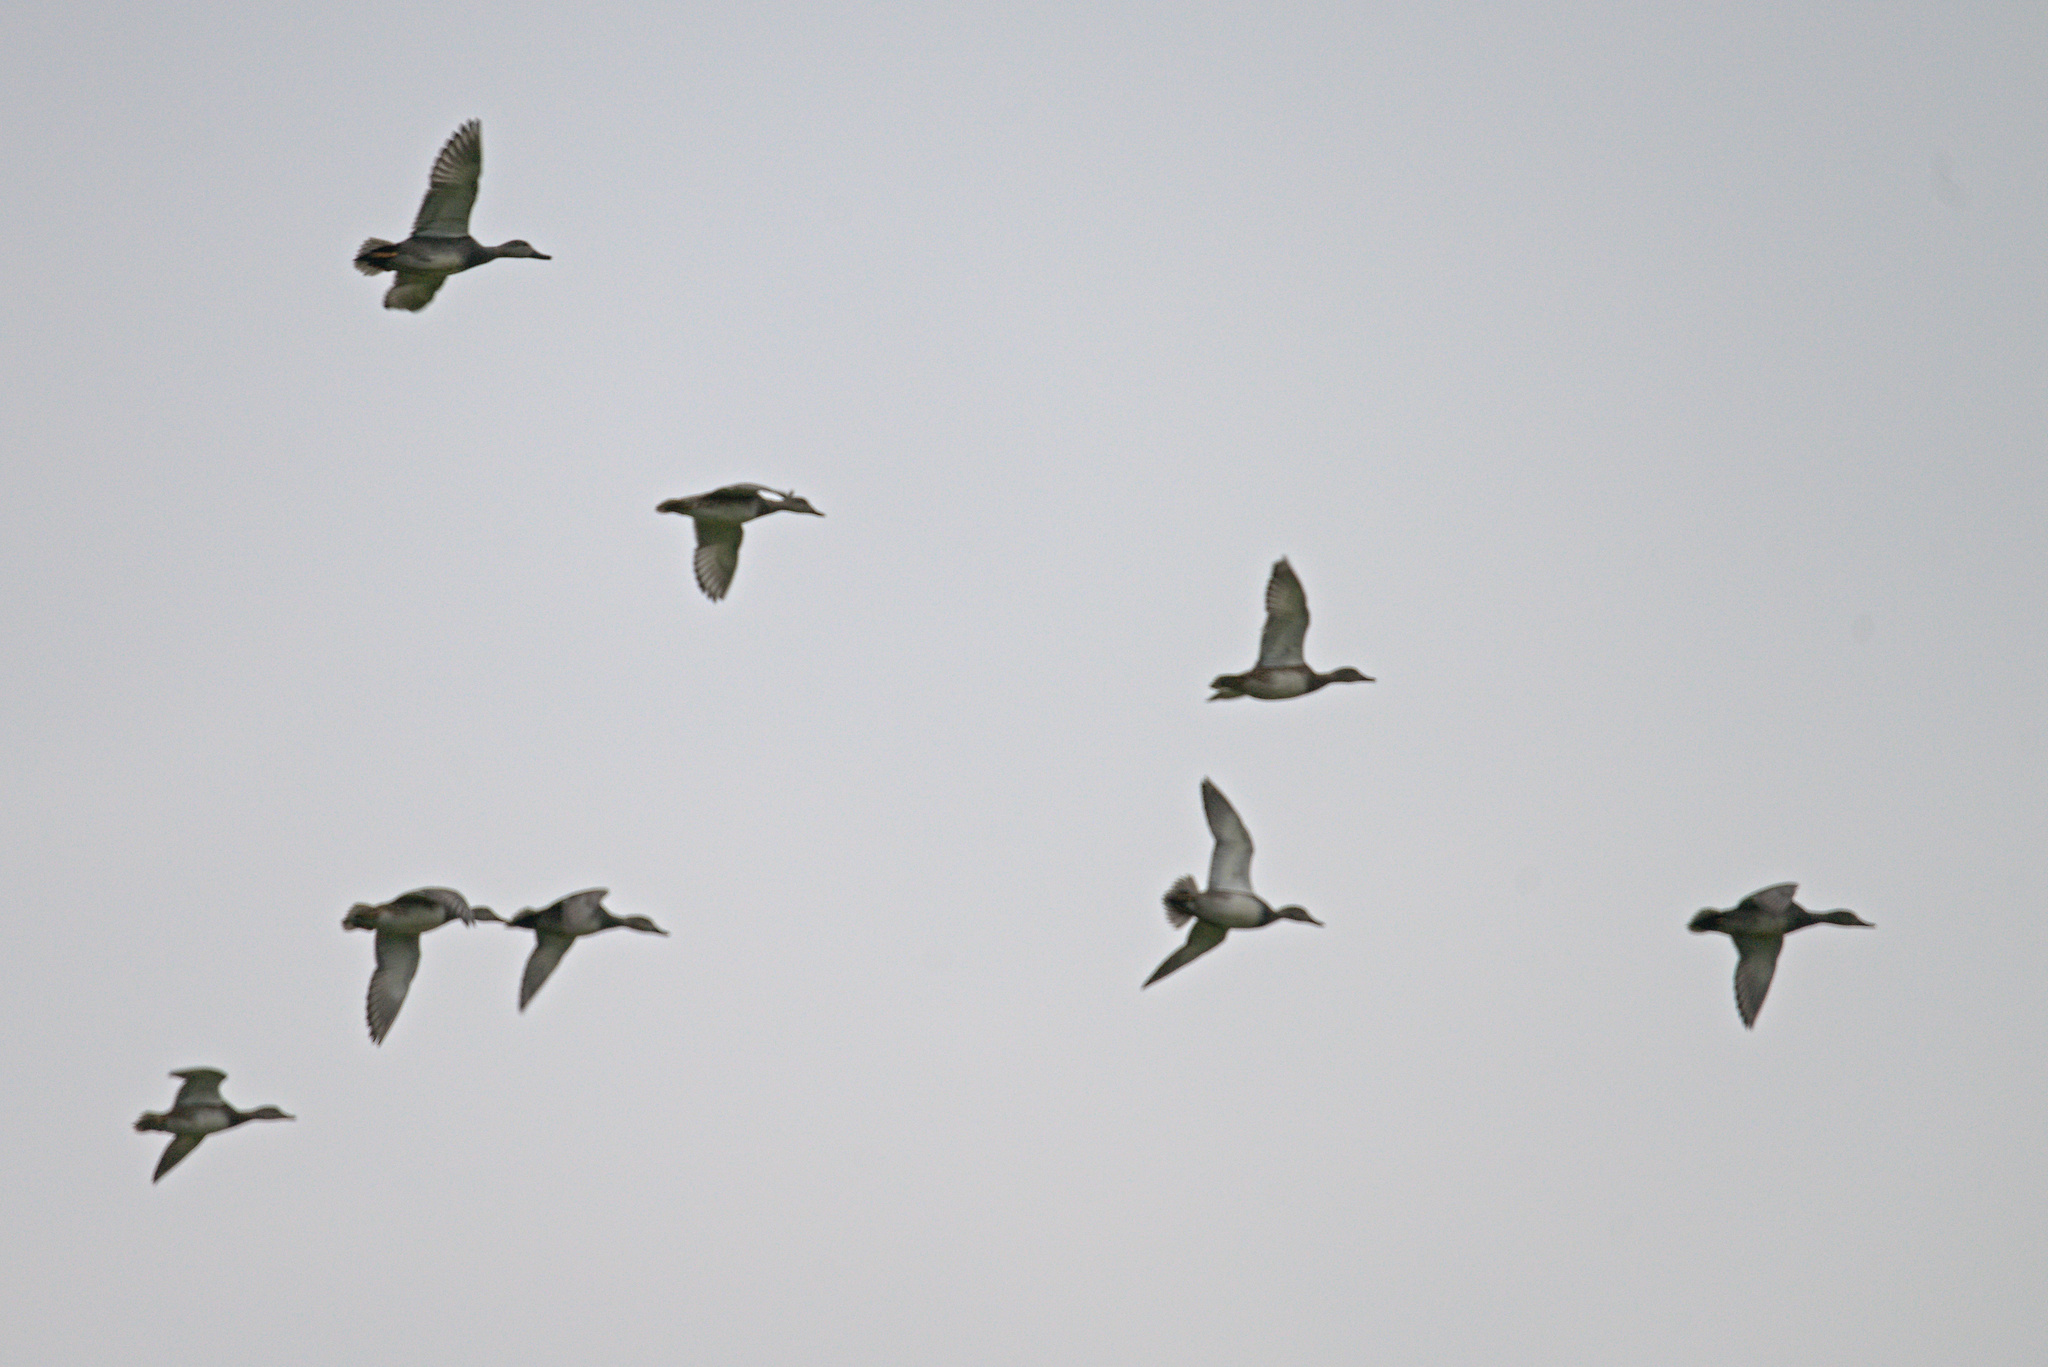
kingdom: Animalia
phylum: Chordata
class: Aves
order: Anseriformes
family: Anatidae
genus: Mareca
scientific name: Mareca strepera
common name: Gadwall
